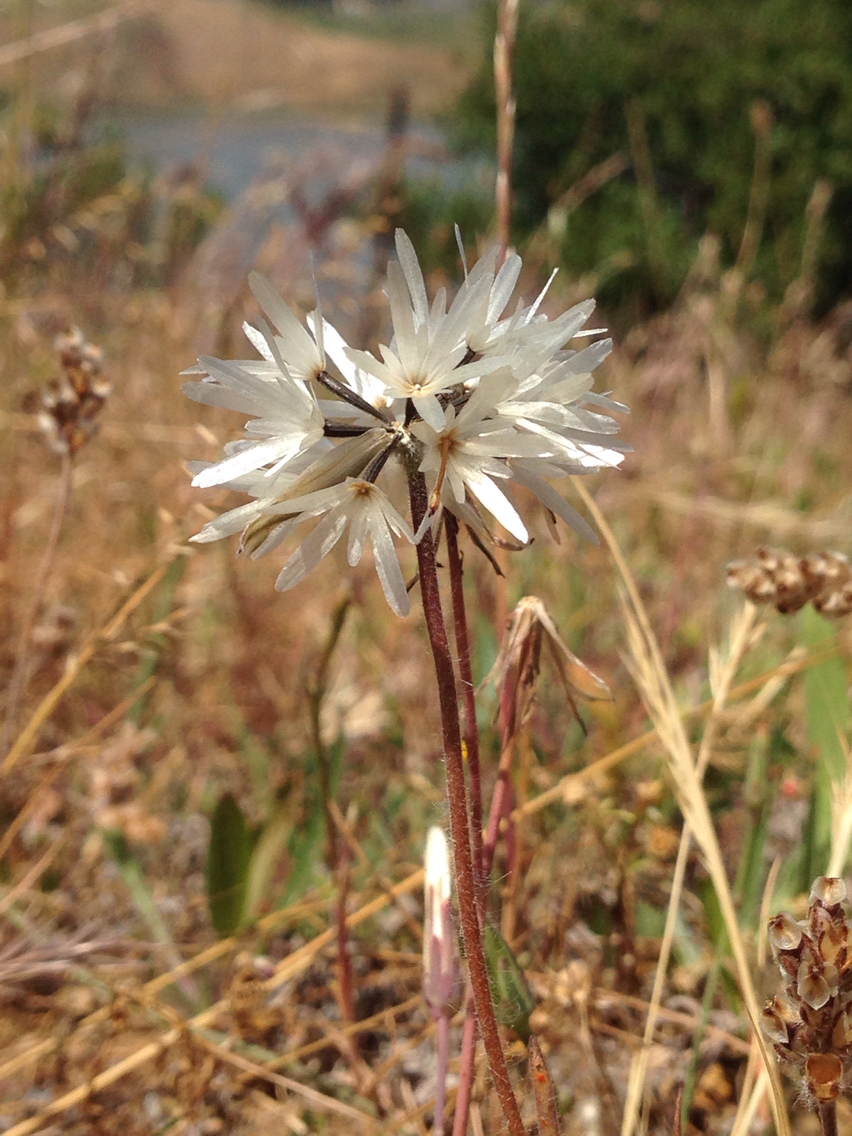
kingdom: Plantae
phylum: Tracheophyta
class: Magnoliopsida
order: Asterales
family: Asteraceae
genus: Achyrachaena
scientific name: Achyrachaena mollis
